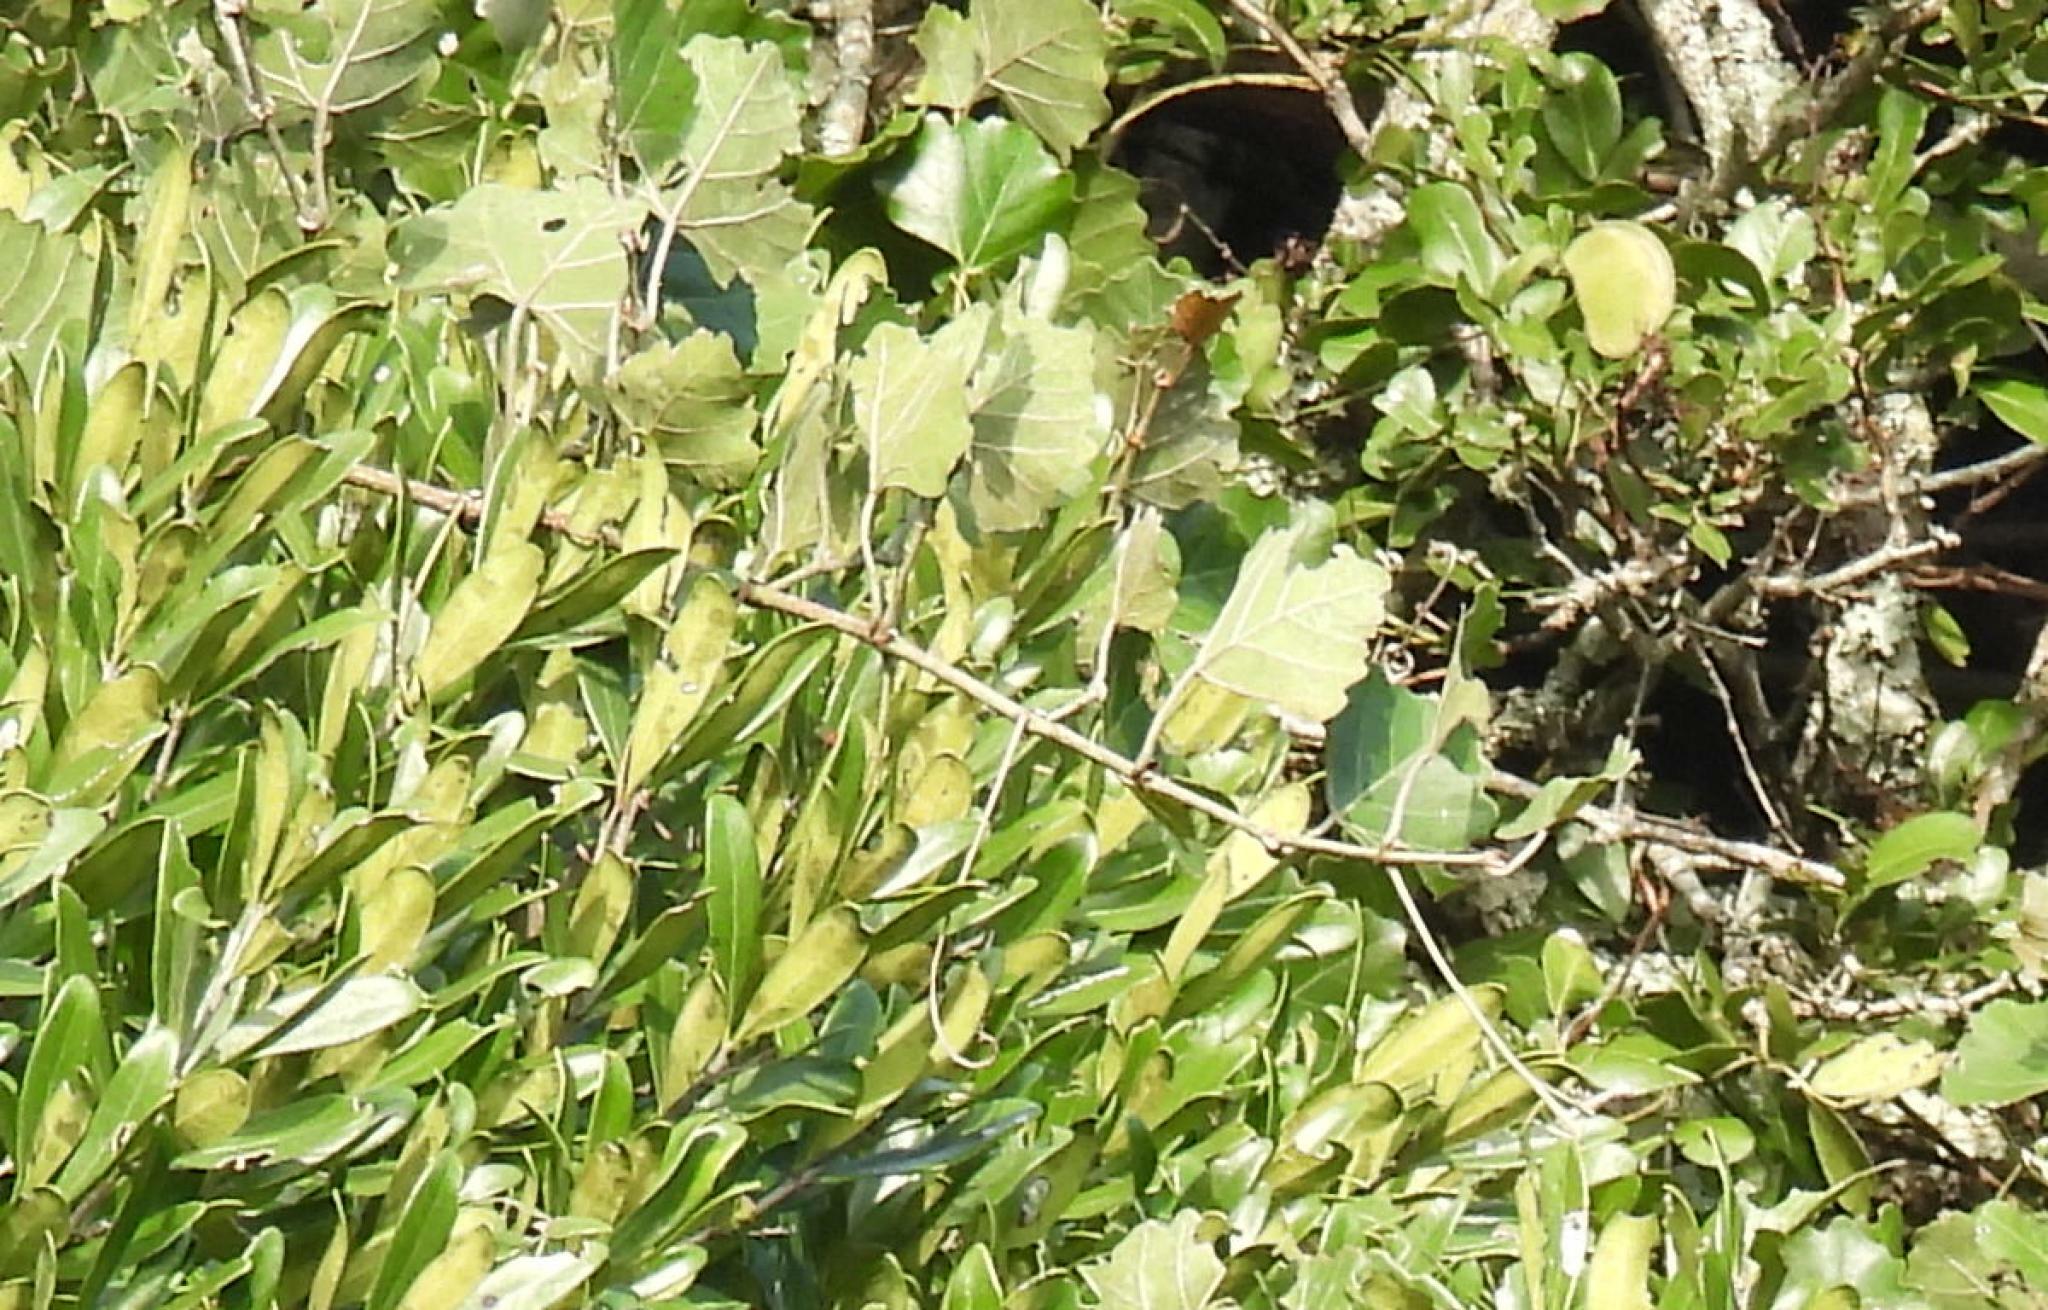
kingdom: Plantae
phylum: Tracheophyta
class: Magnoliopsida
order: Vitales
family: Vitaceae
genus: Rhoicissus
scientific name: Rhoicissus tomentosa
